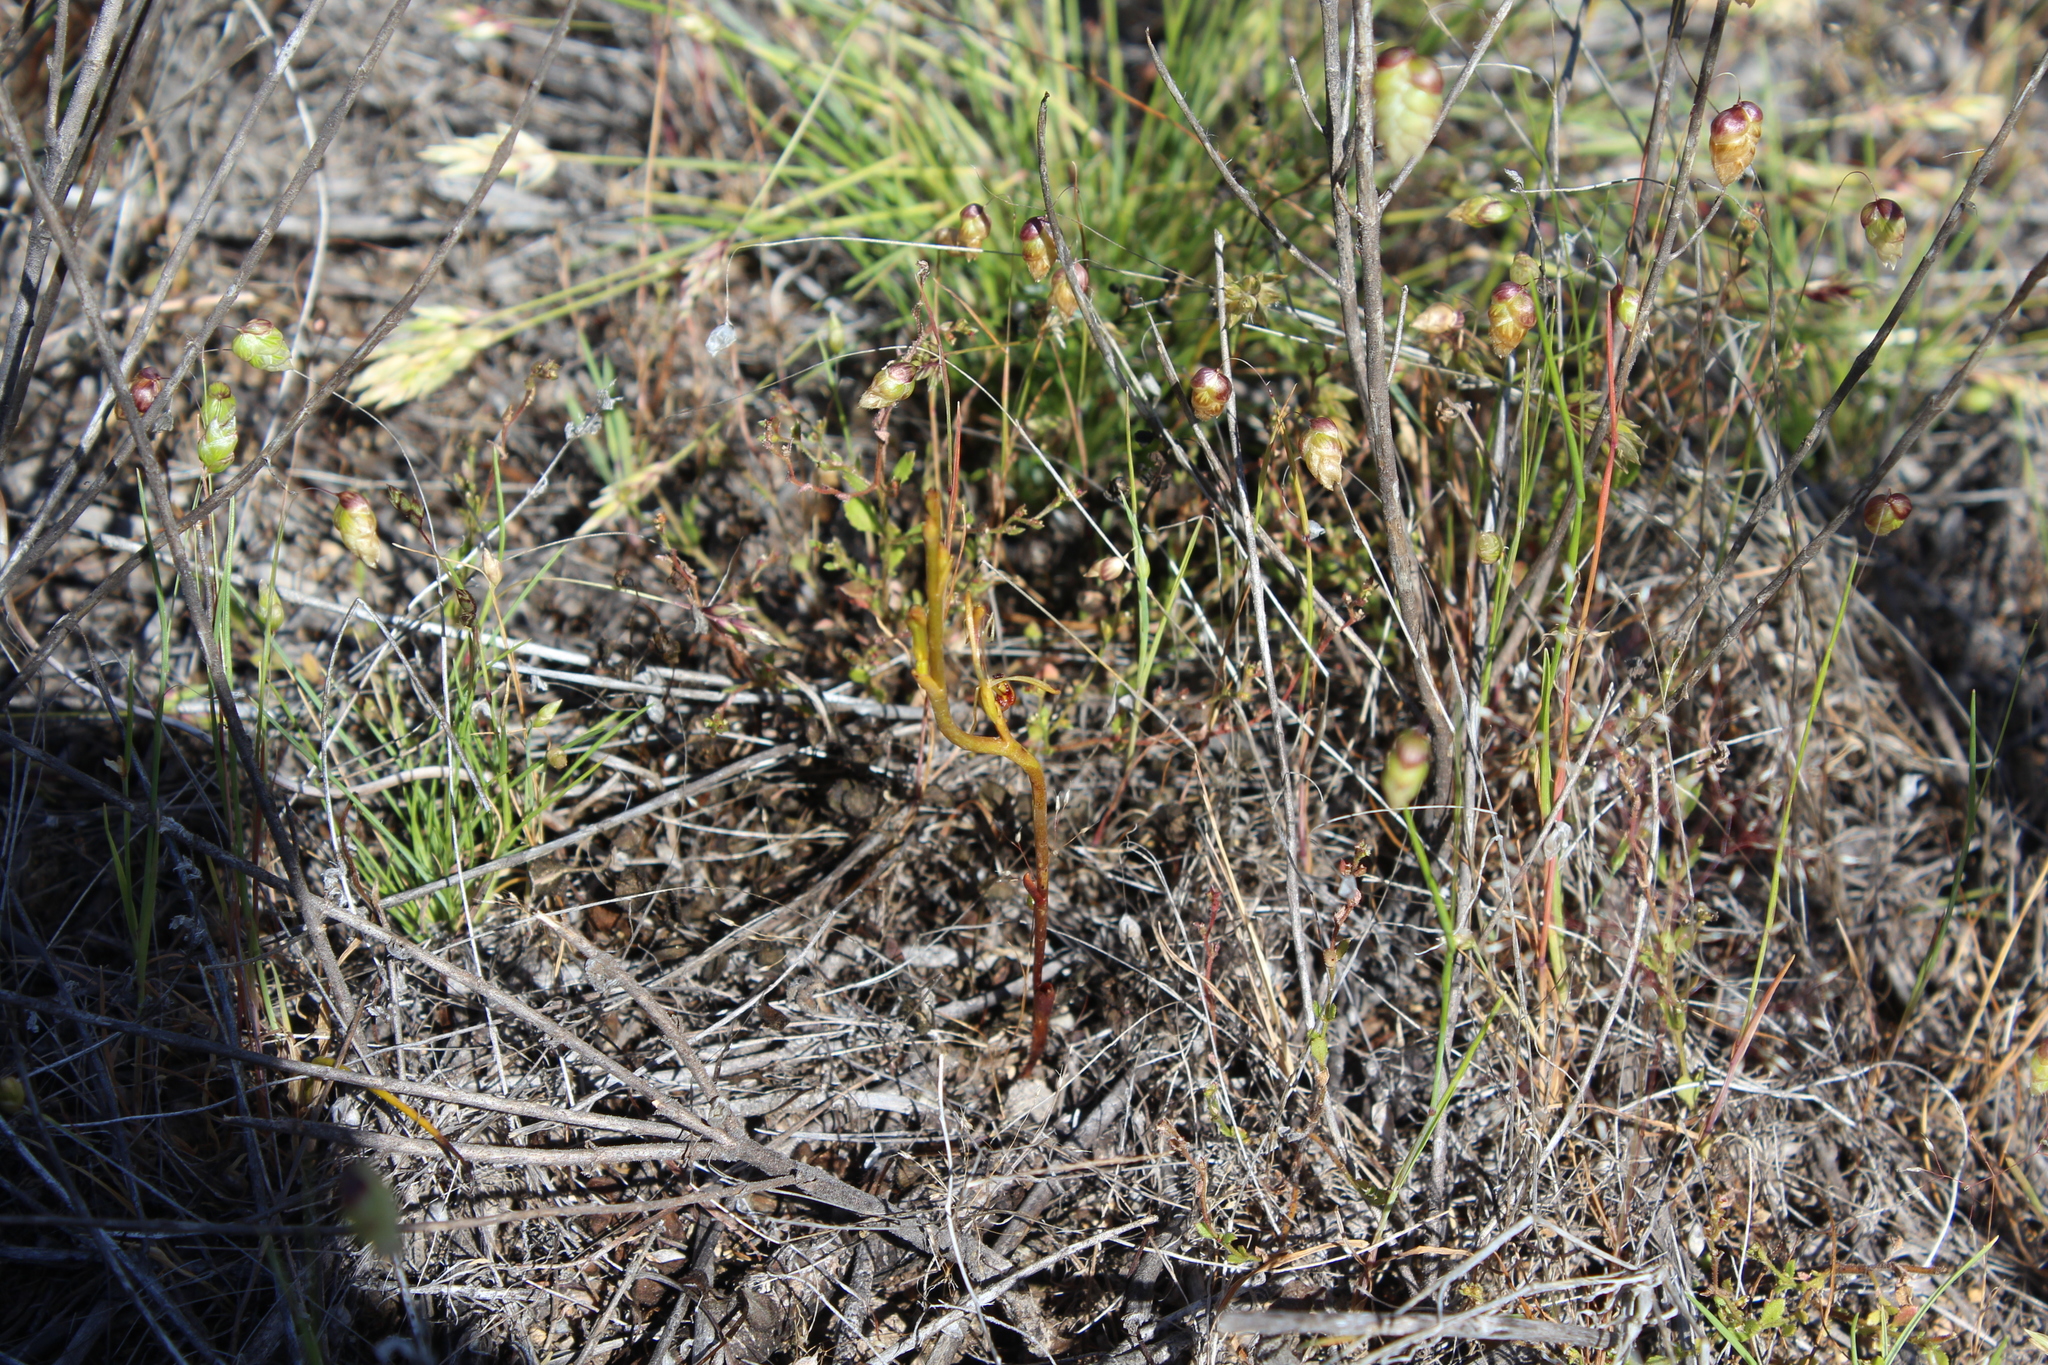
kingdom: Plantae
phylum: Tracheophyta
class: Liliopsida
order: Asparagales
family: Orchidaceae
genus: Spiculaea
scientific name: Spiculaea ciliata
